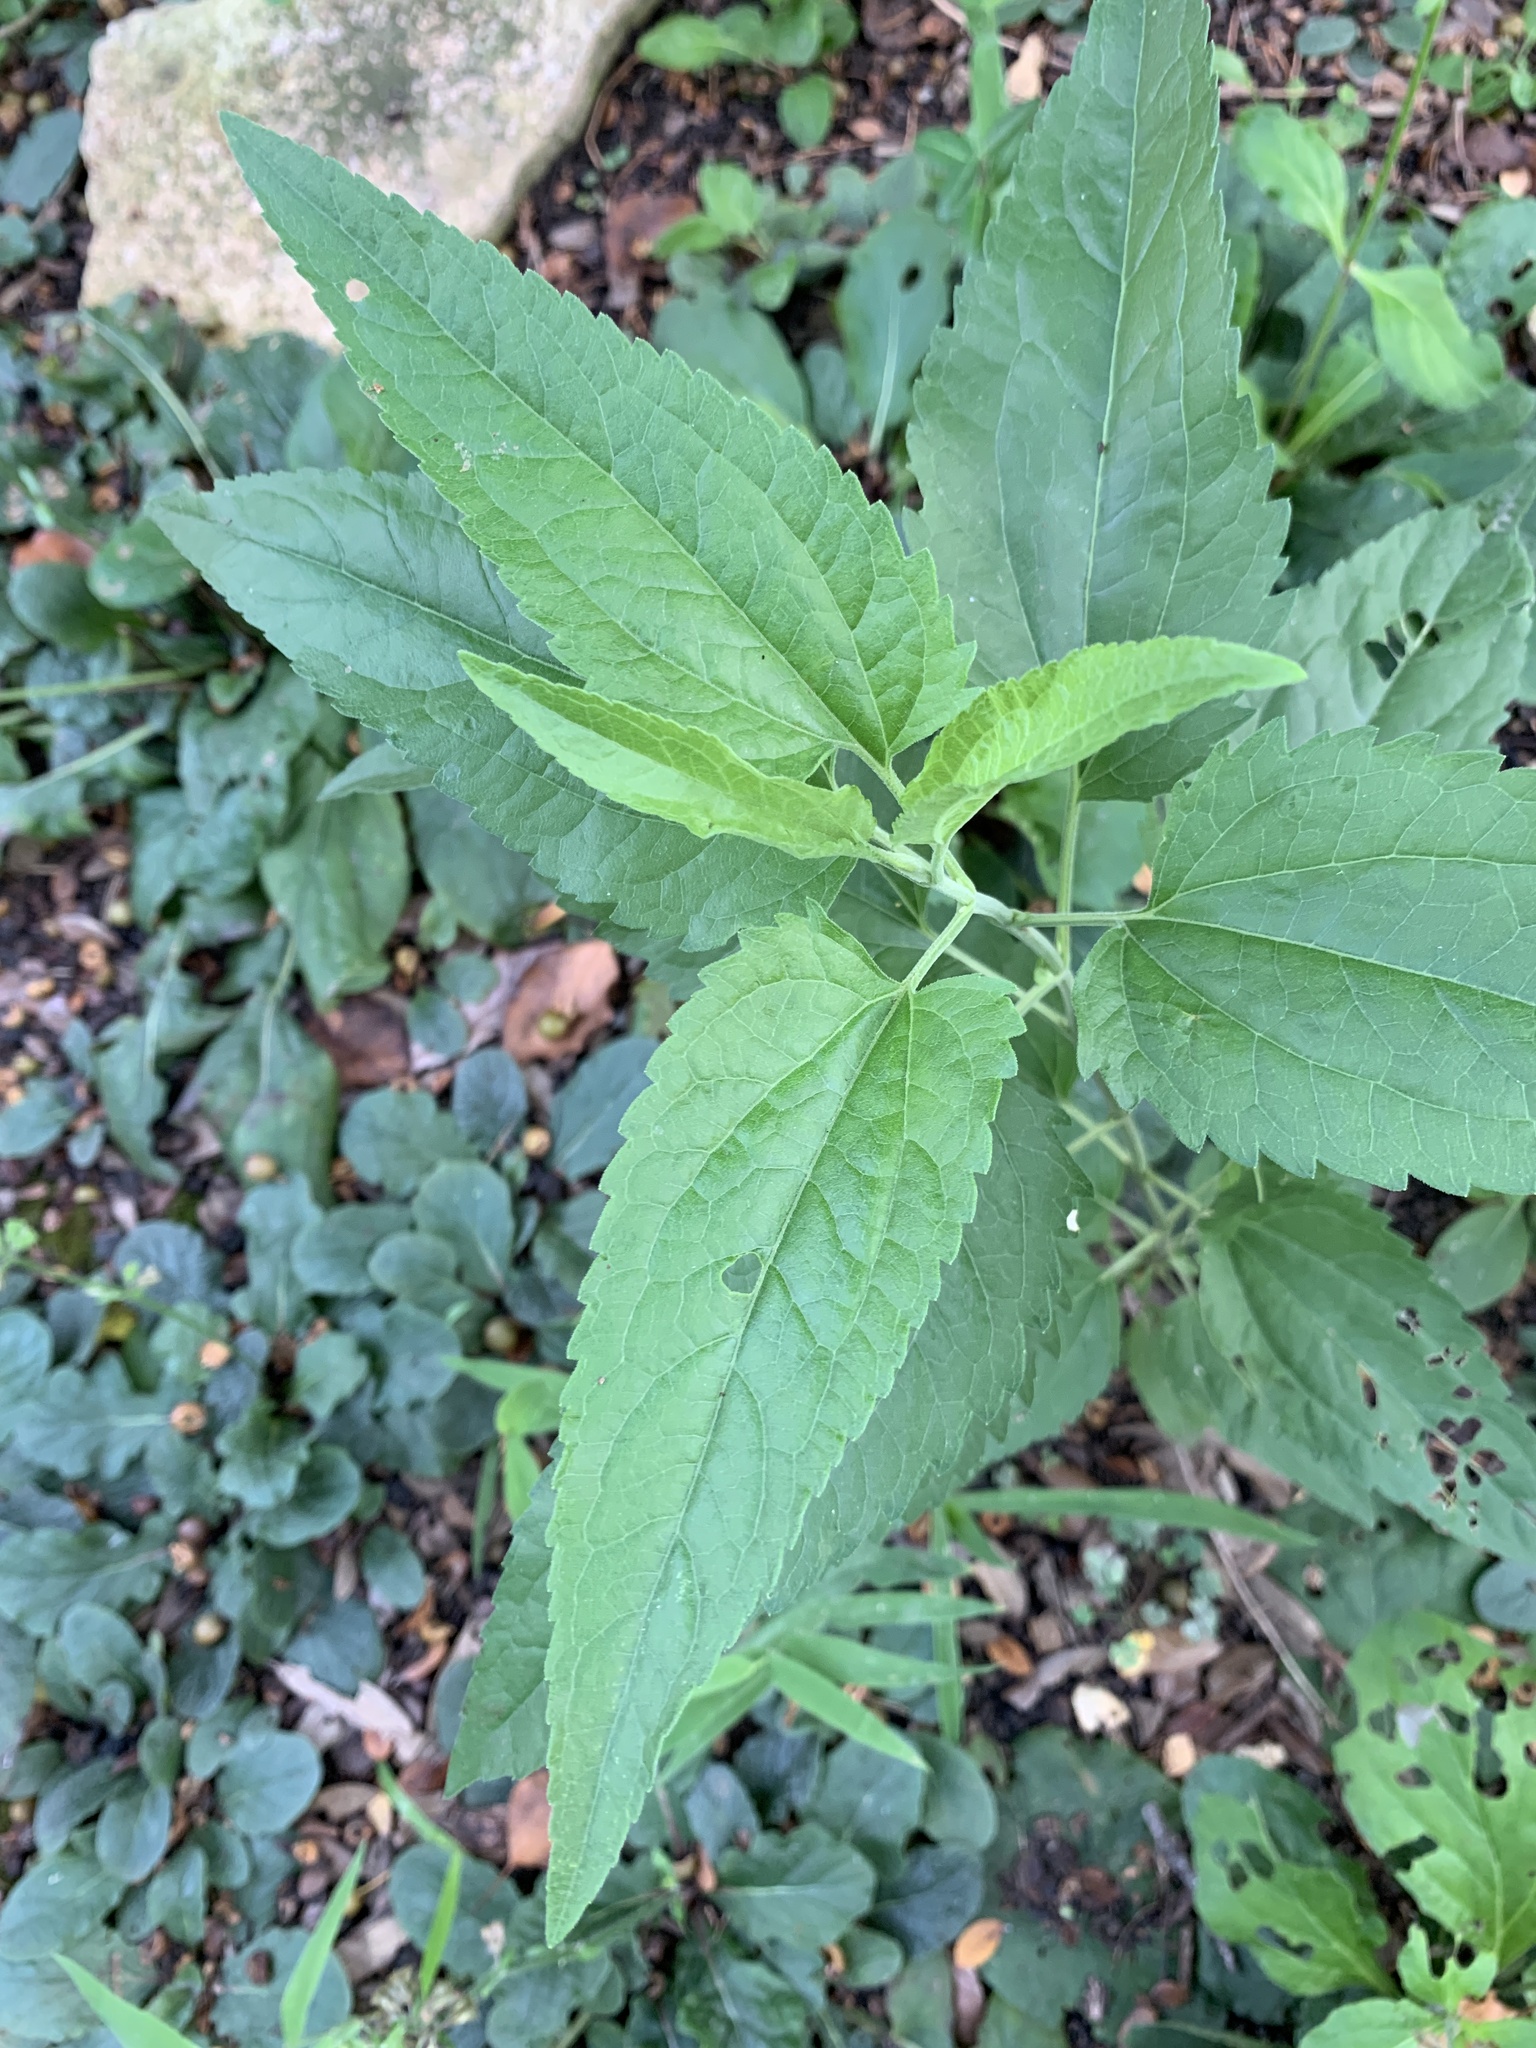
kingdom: Plantae
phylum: Tracheophyta
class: Magnoliopsida
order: Asterales
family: Asteraceae
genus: Eupatorium
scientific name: Eupatorium serotinum
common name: Late boneset
